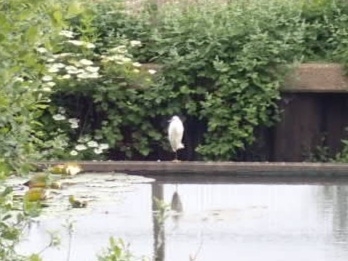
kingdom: Animalia
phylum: Chordata
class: Aves
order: Pelecaniformes
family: Ardeidae
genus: Egretta
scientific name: Egretta garzetta
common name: Little egret
